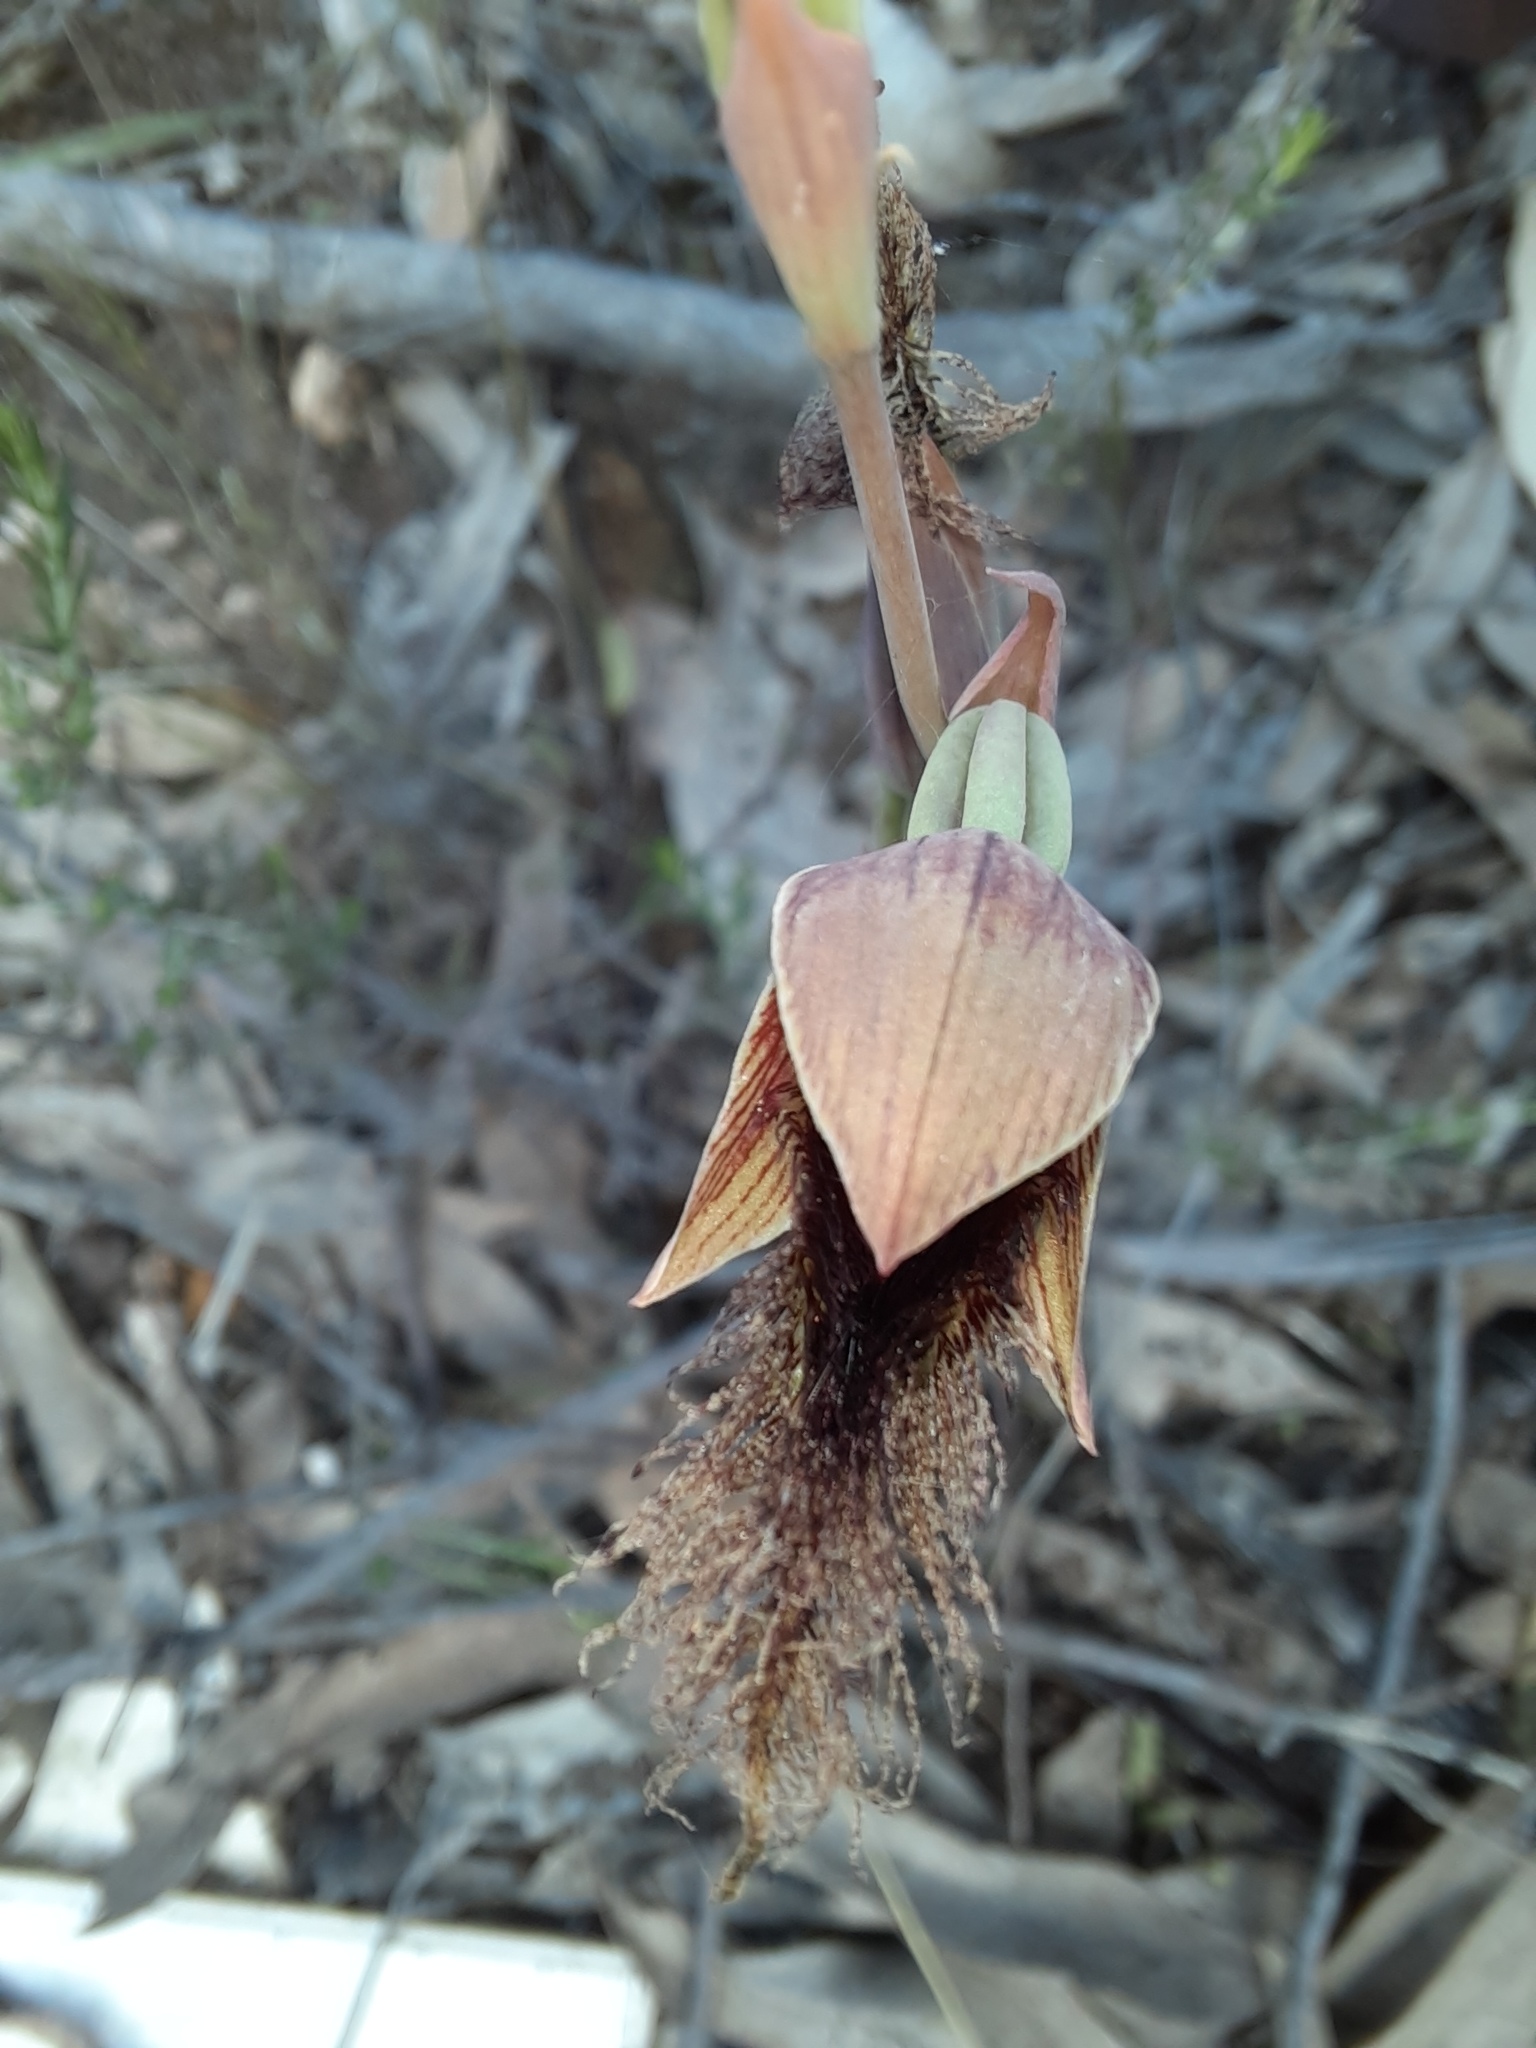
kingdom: Plantae
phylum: Tracheophyta
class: Liliopsida
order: Asparagales
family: Orchidaceae
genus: Calochilus
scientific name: Calochilus robertsonii
